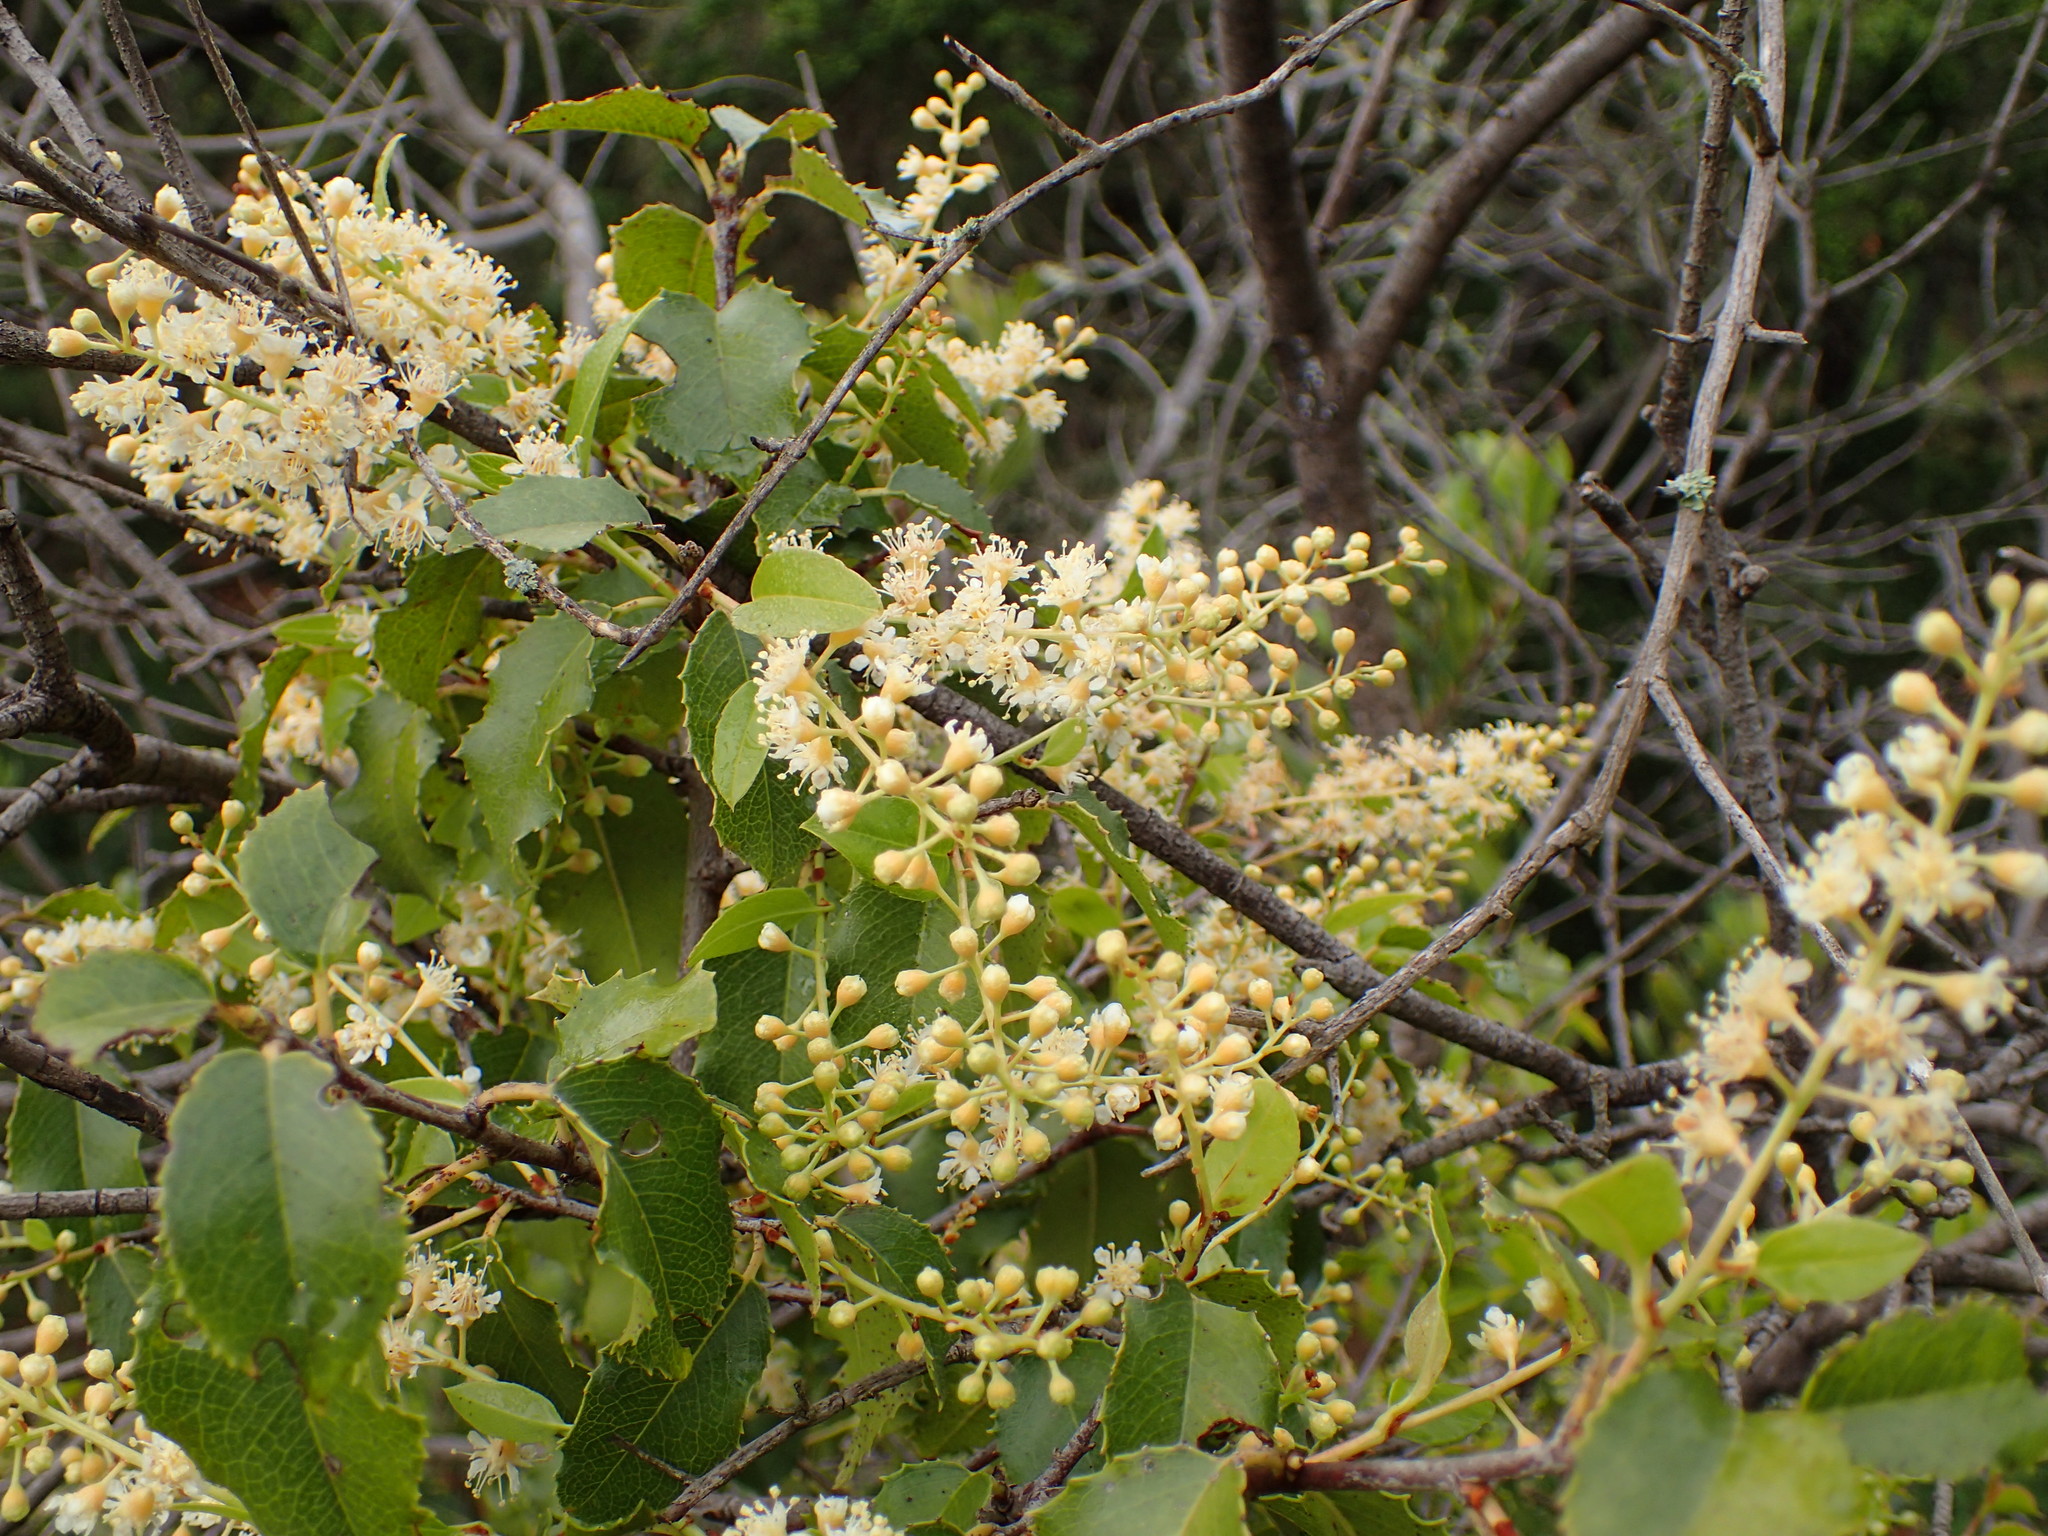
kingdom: Plantae
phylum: Tracheophyta
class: Magnoliopsida
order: Rosales
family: Rosaceae
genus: Prunus
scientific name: Prunus ilicifolia
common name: Hollyleaf cherry
